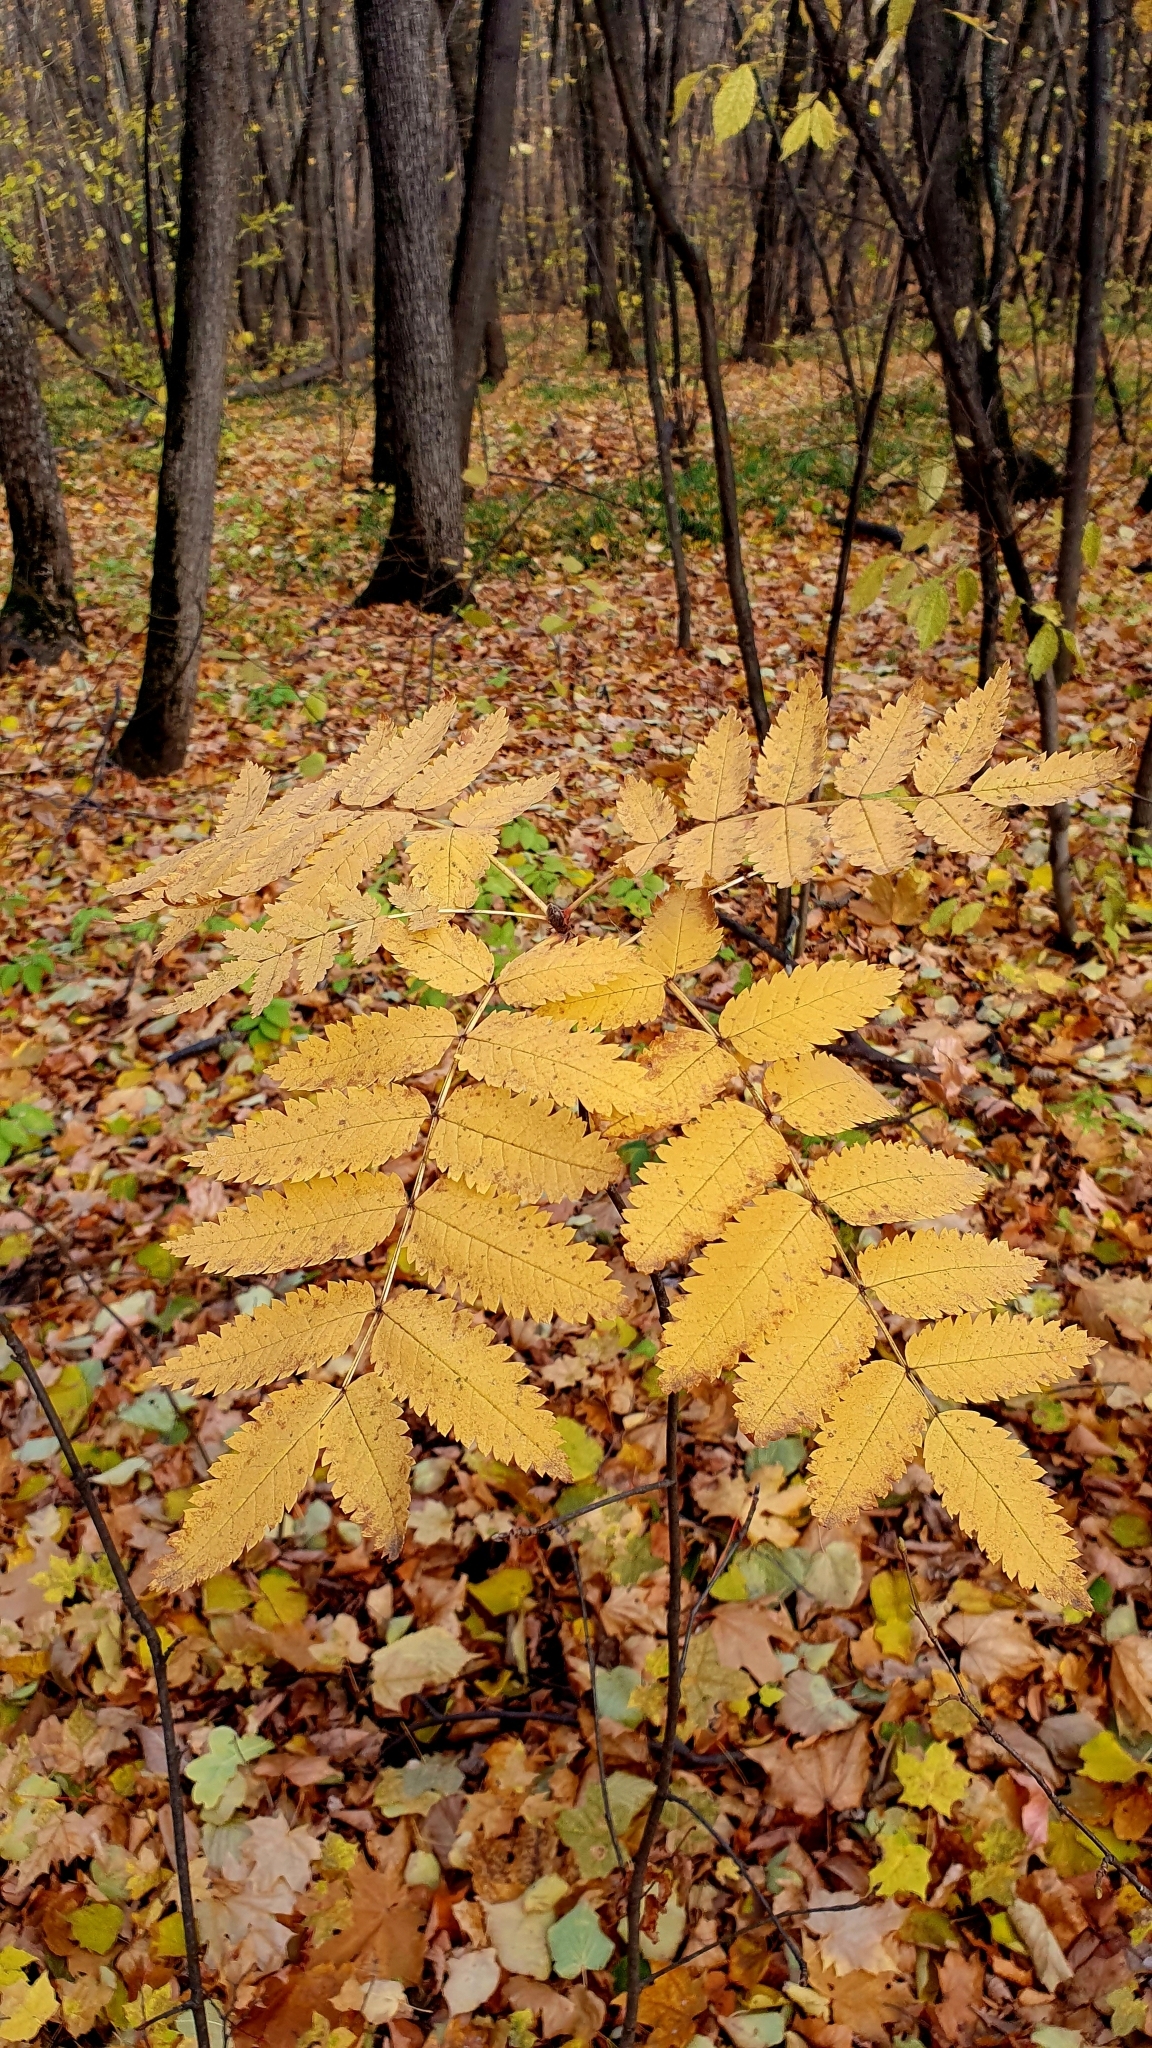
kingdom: Plantae
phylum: Tracheophyta
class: Magnoliopsida
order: Rosales
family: Rosaceae
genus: Sorbus
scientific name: Sorbus aucuparia
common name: Rowan
